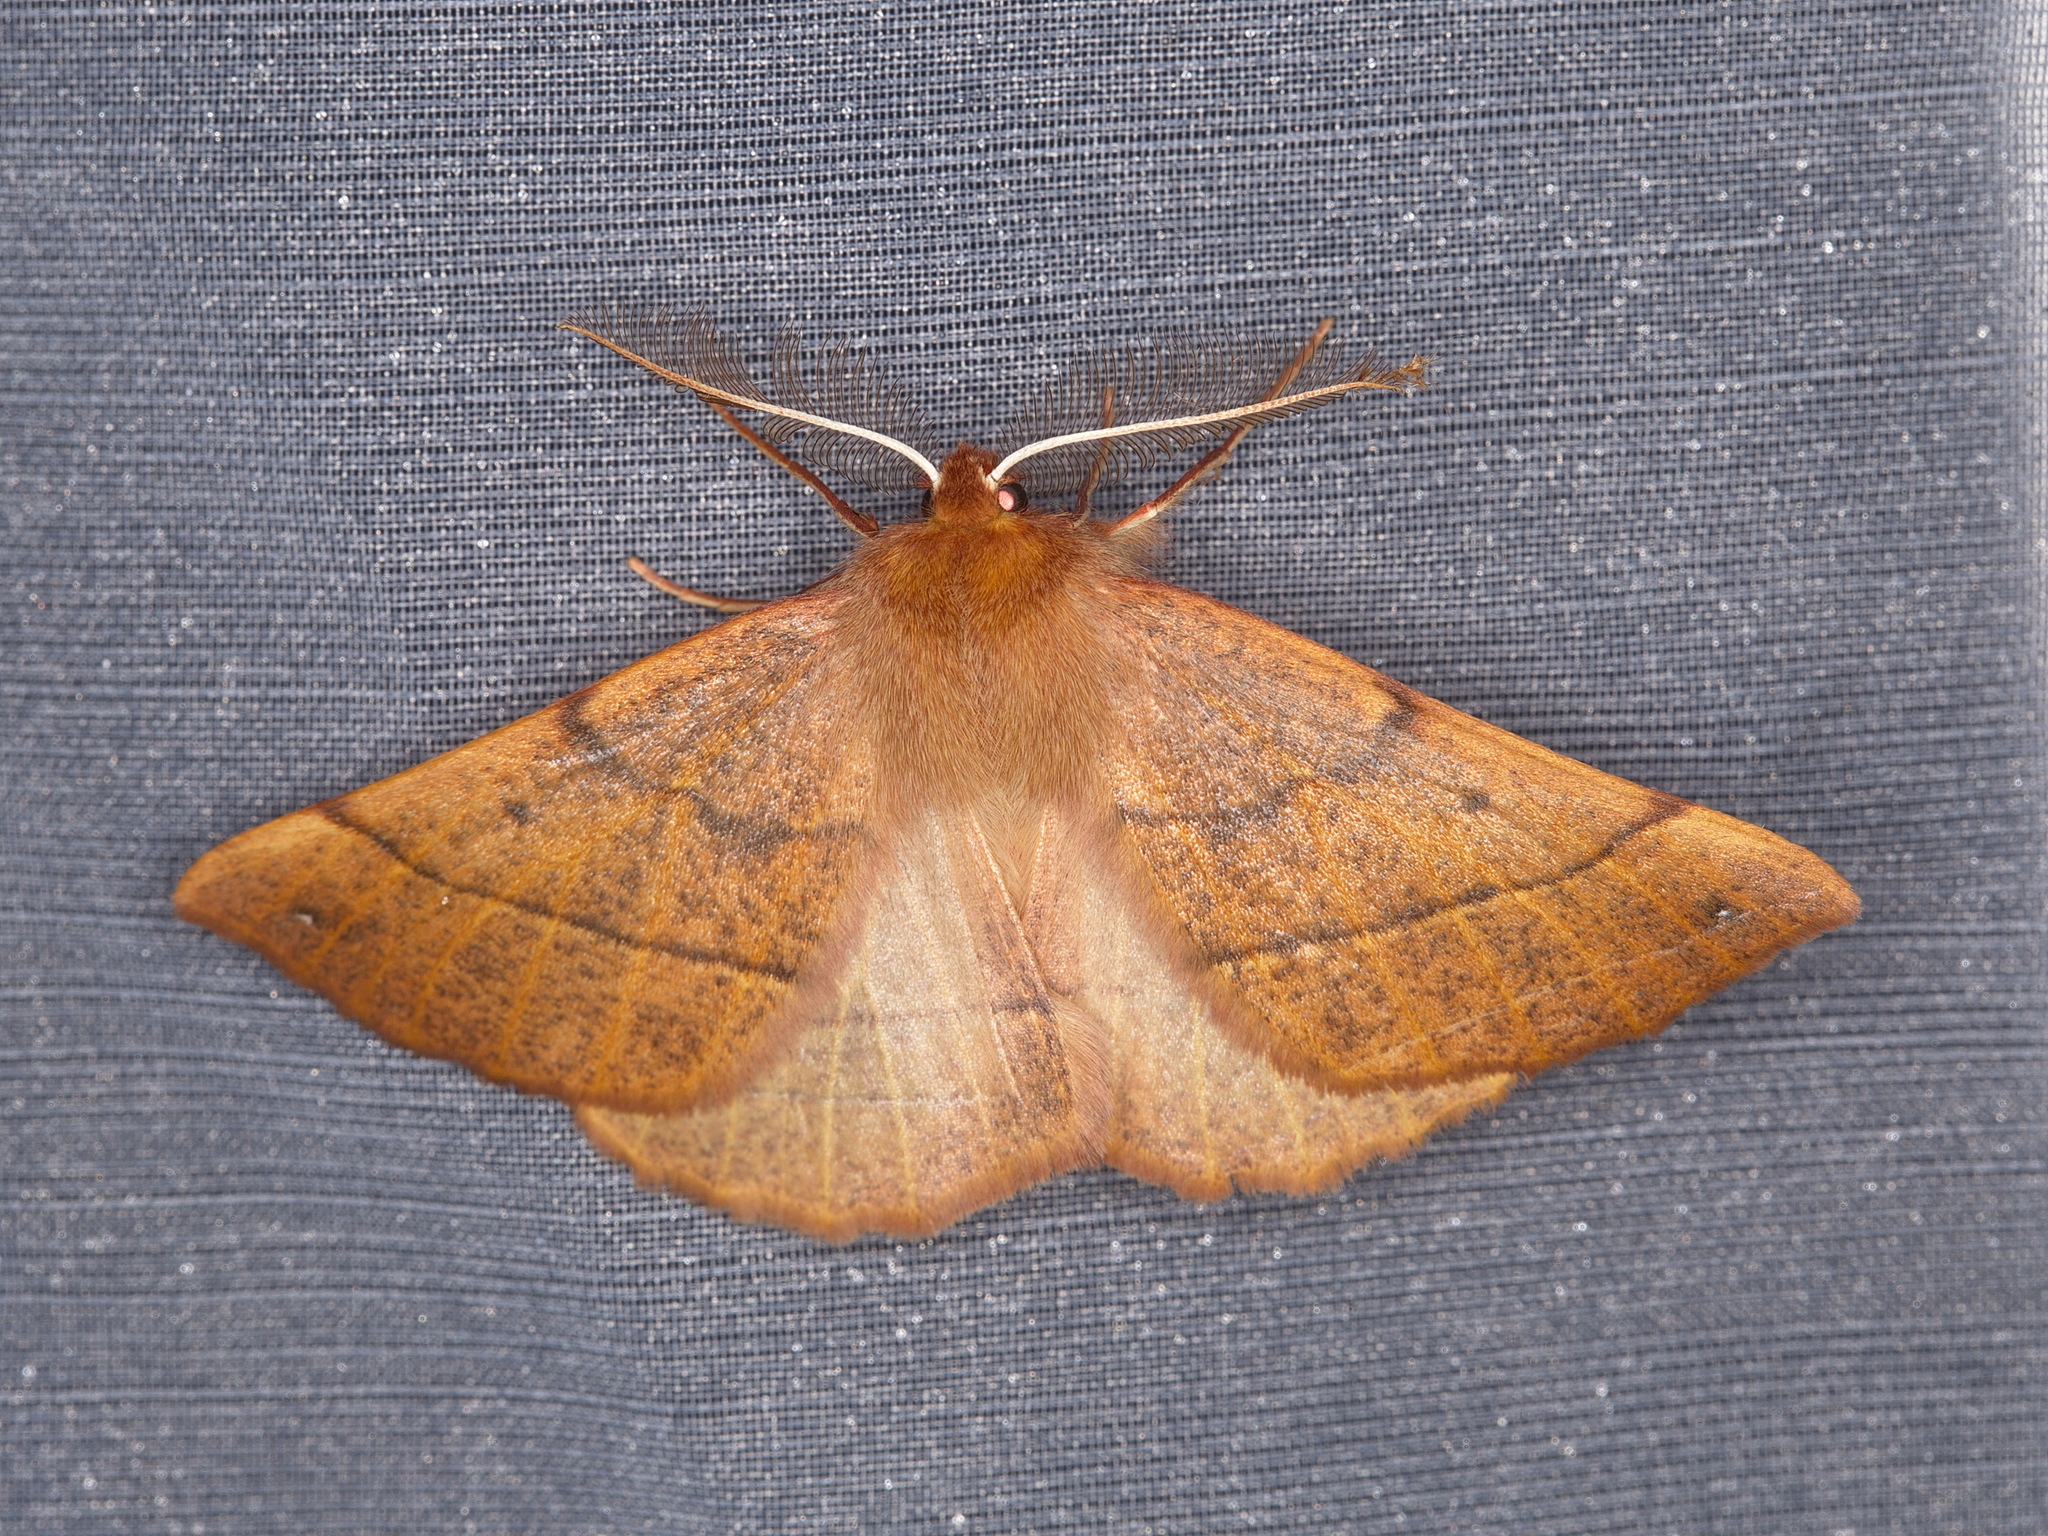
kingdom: Animalia
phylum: Arthropoda
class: Insecta
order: Lepidoptera
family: Geometridae
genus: Colotois
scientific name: Colotois pennaria
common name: Feathered thorn
